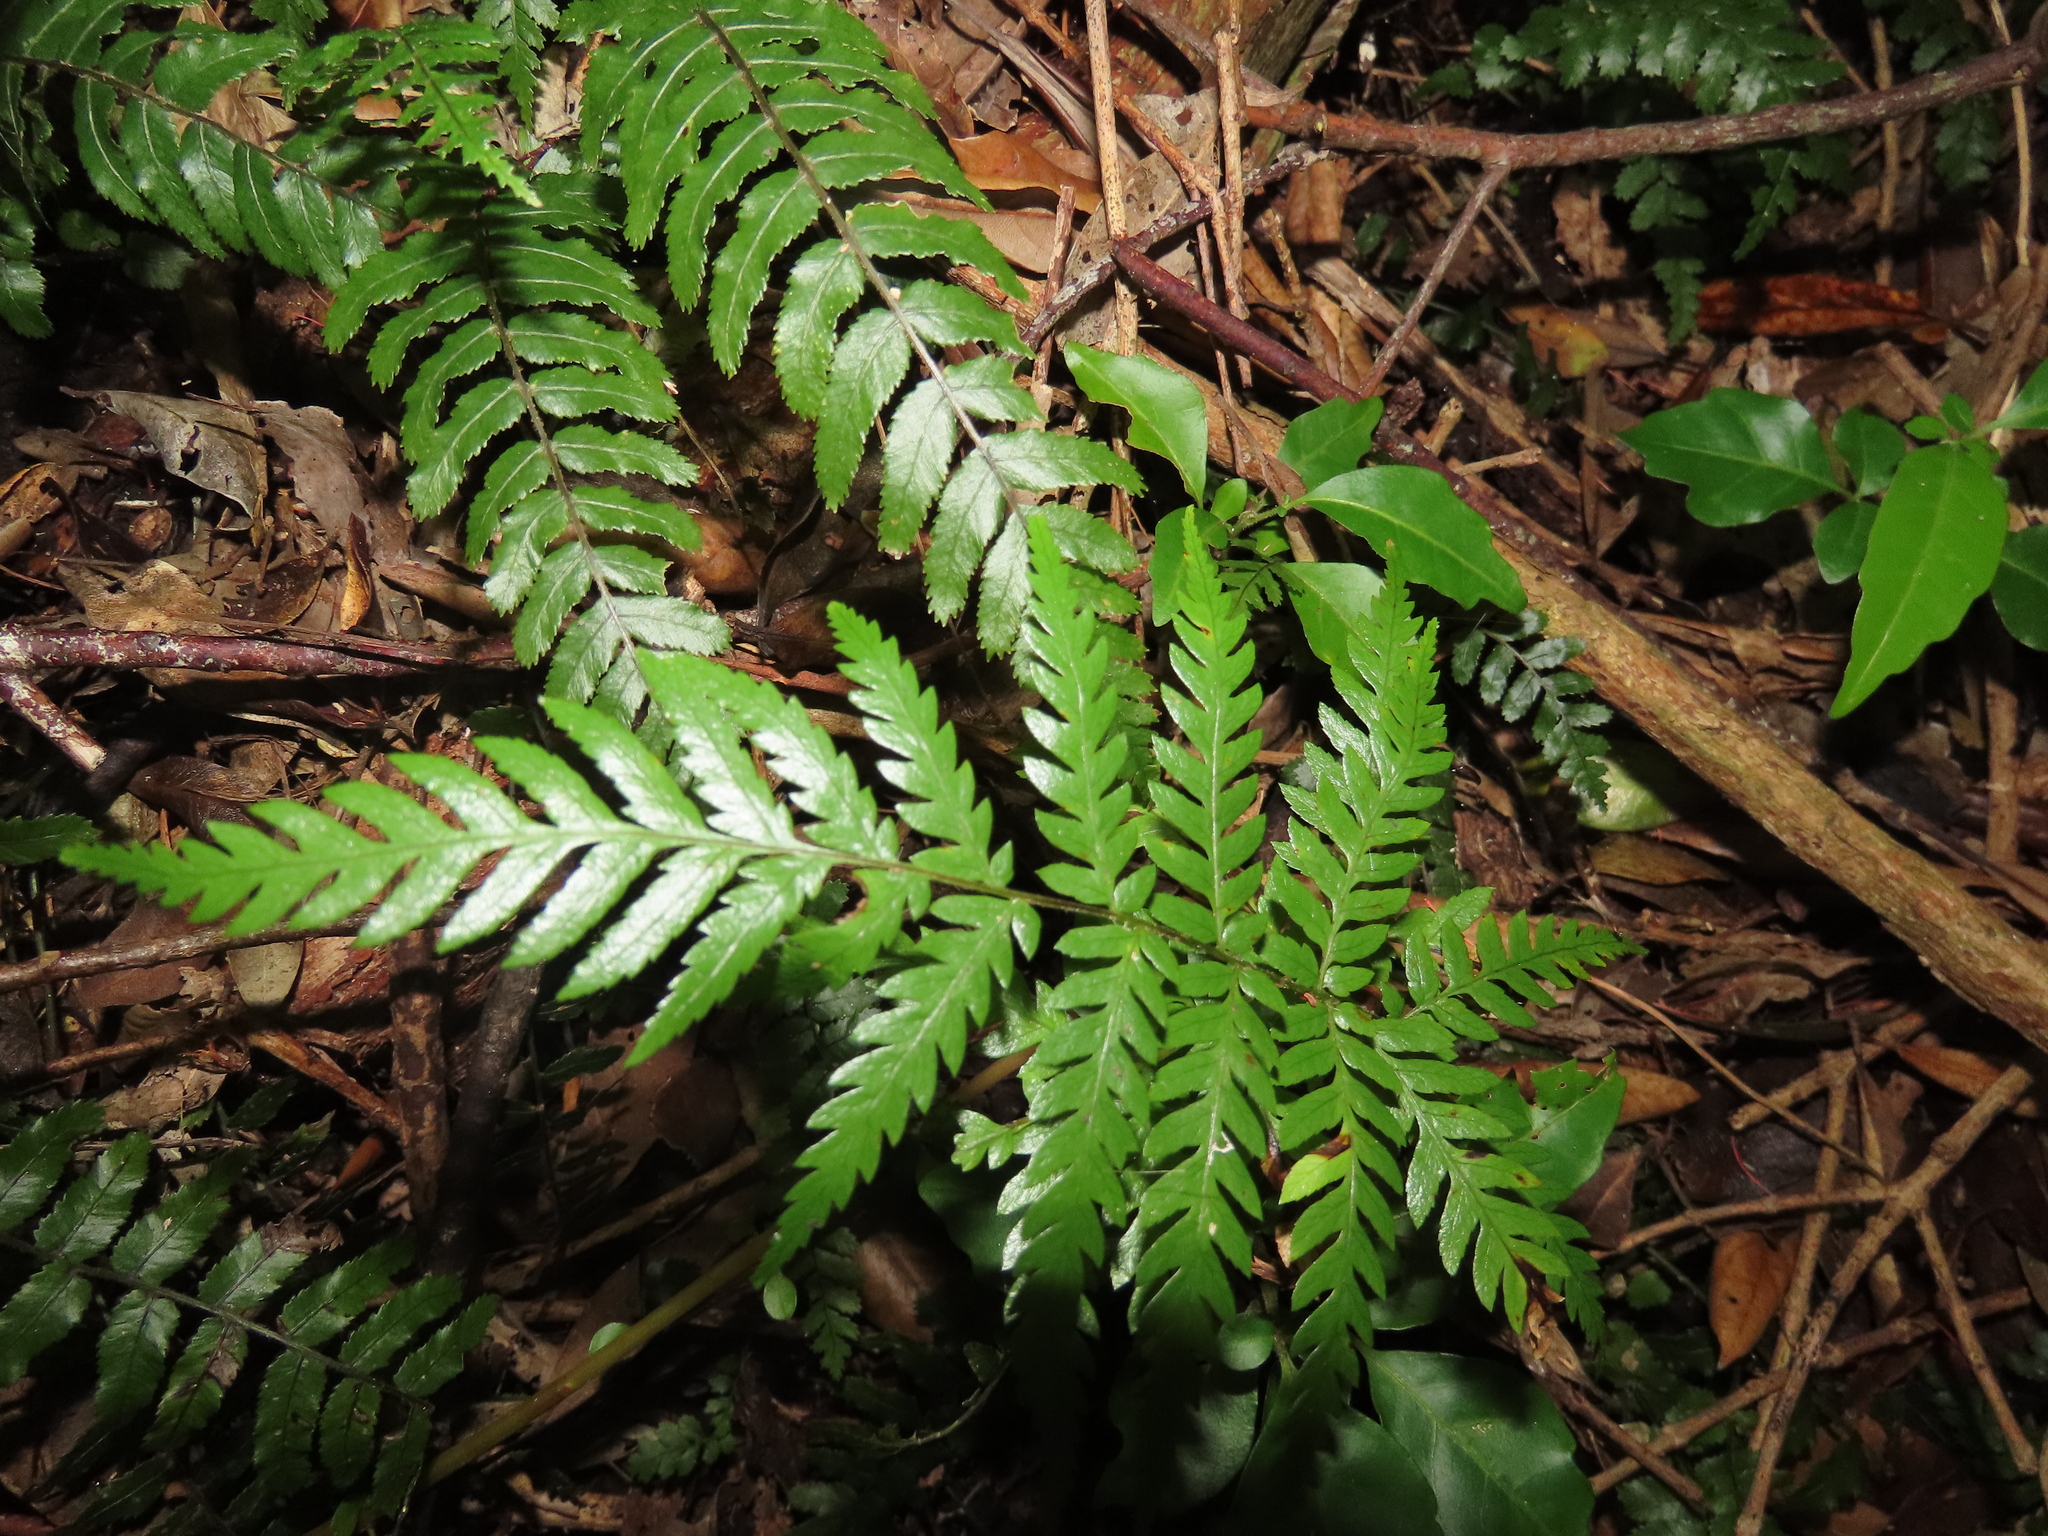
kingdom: Plantae
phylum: Tracheophyta
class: Polypodiopsida
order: Cyatheales
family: Cyatheaceae
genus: Alsophila
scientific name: Alsophila dealbata
